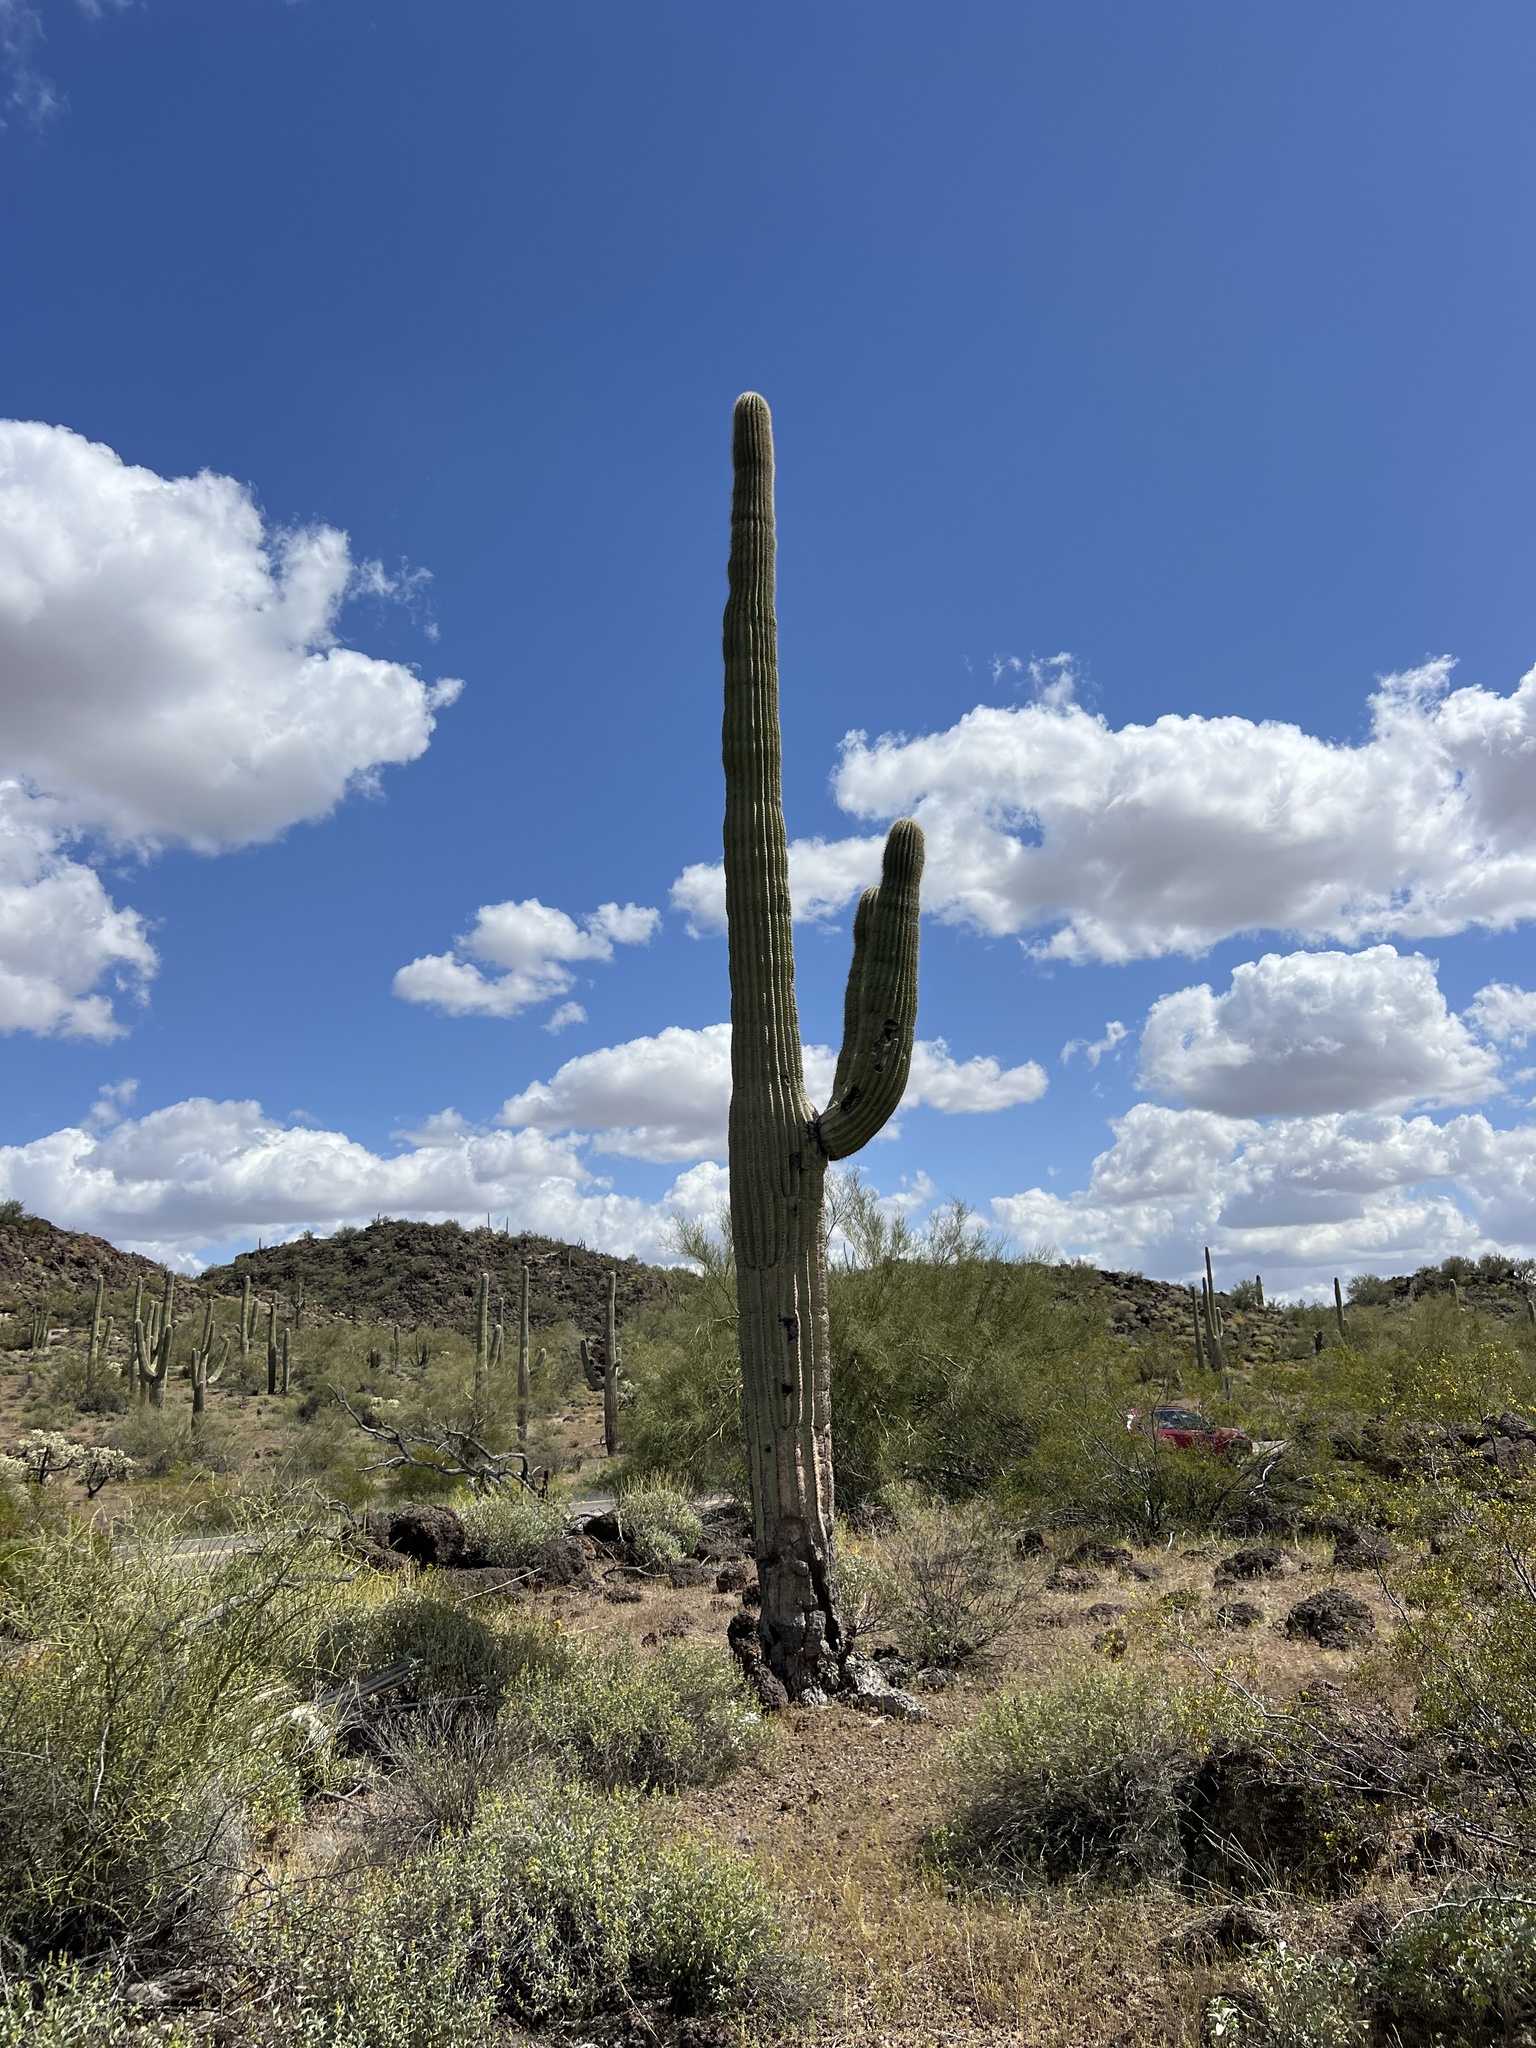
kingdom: Plantae
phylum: Tracheophyta
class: Magnoliopsida
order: Caryophyllales
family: Cactaceae
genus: Carnegiea
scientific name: Carnegiea gigantea
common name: Saguaro
